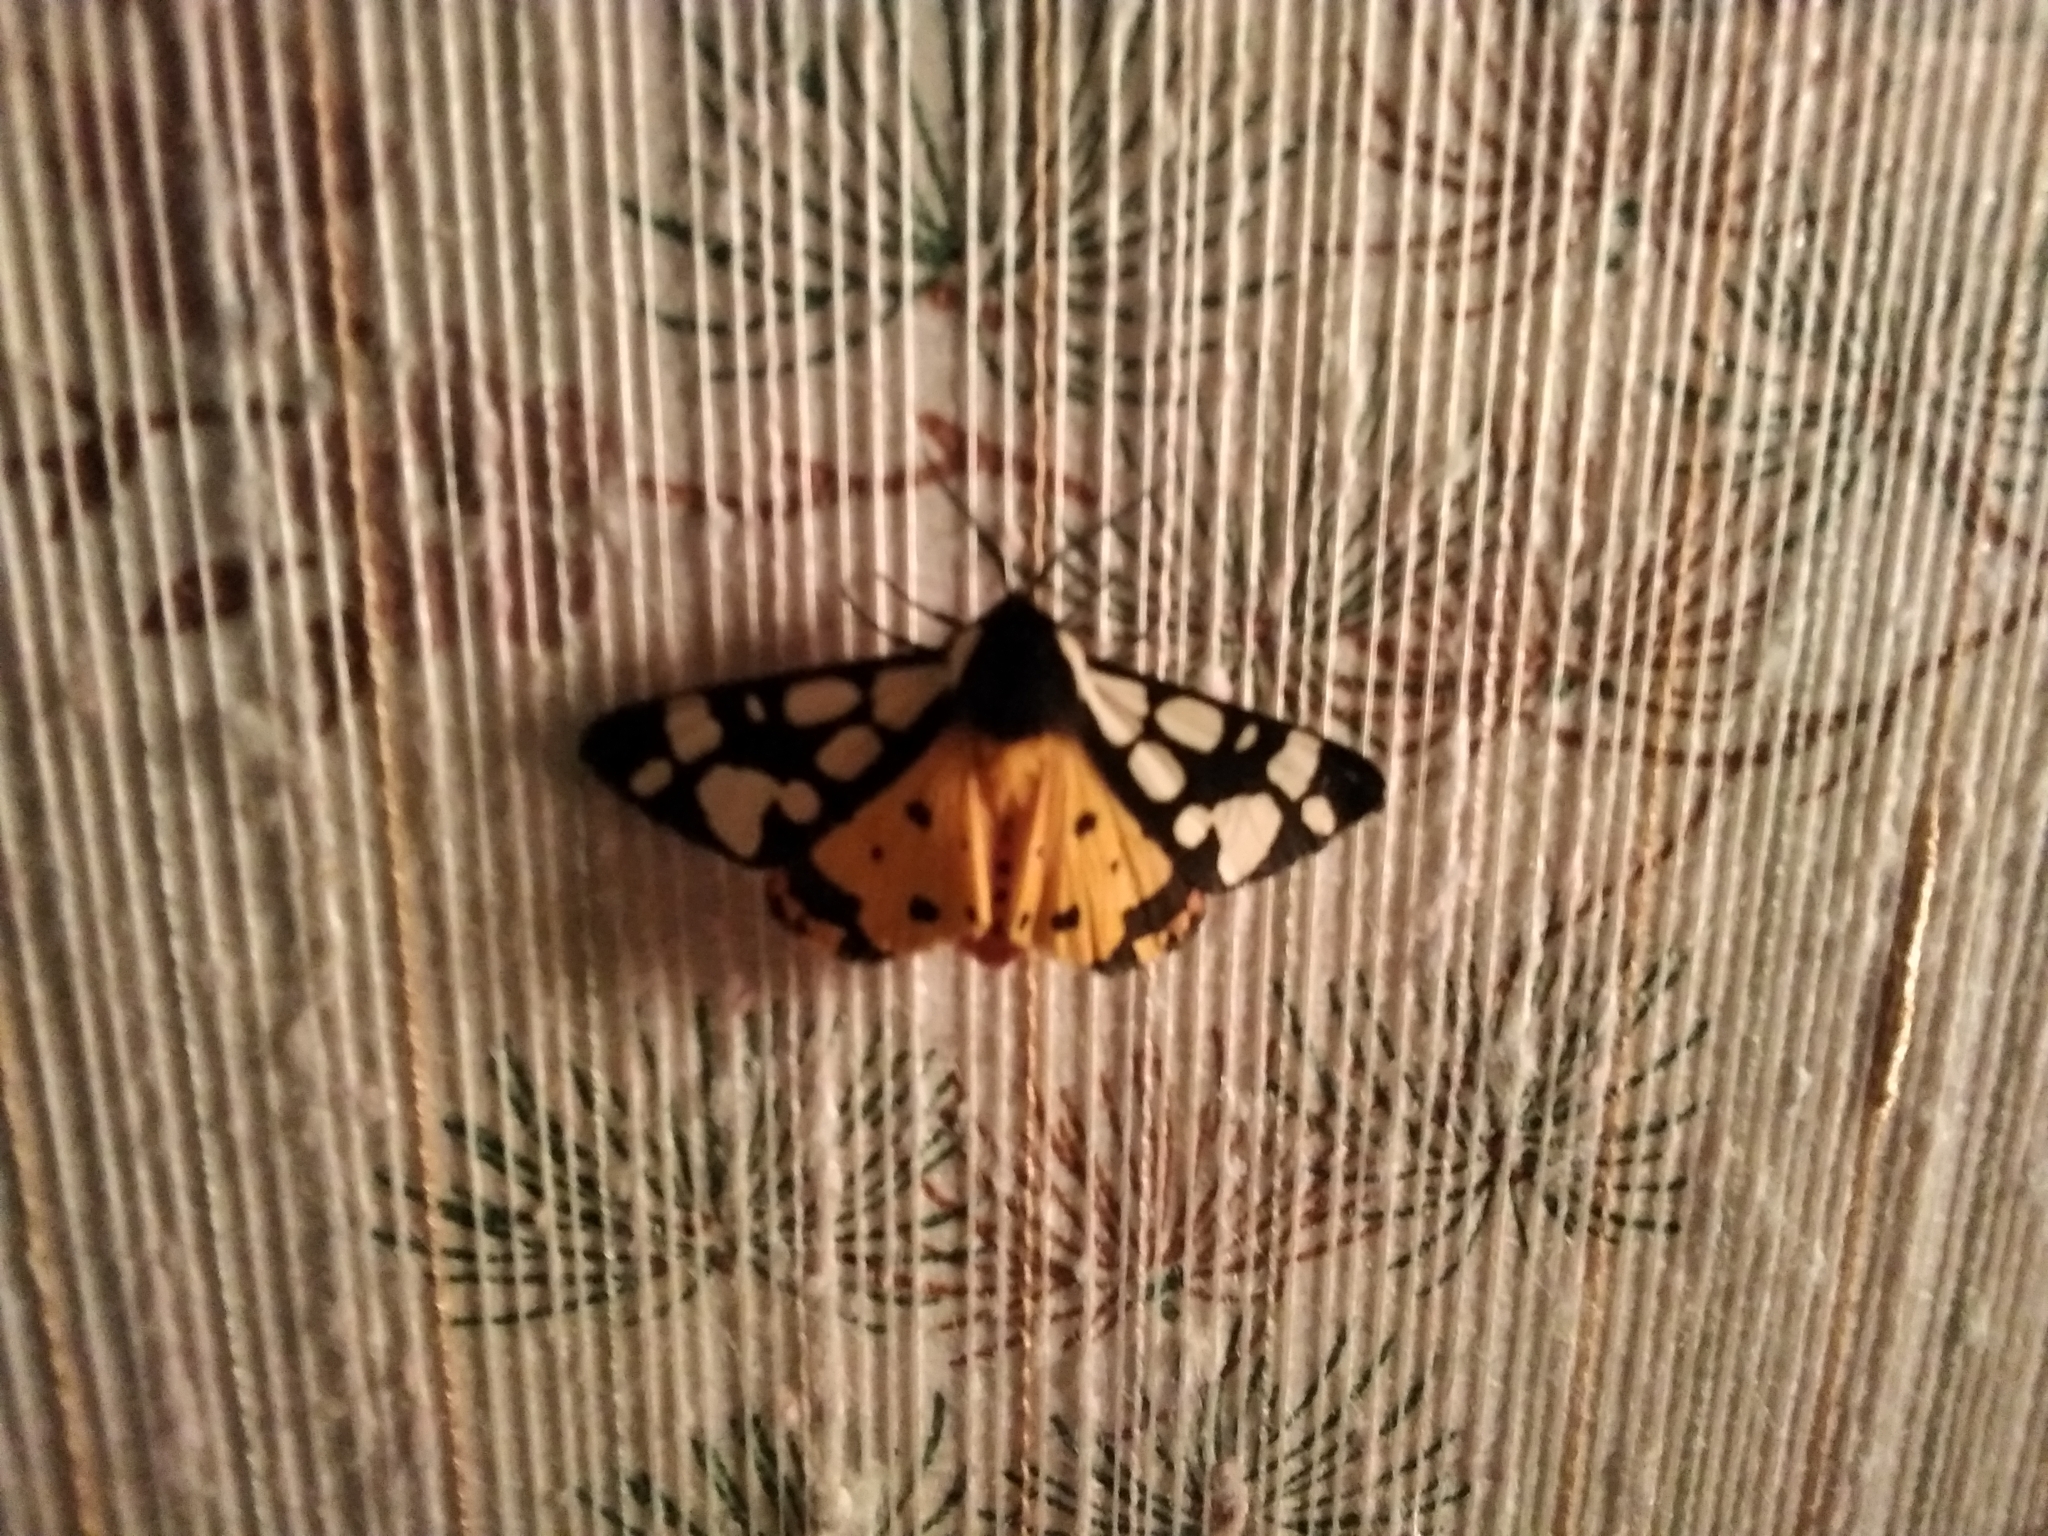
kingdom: Animalia
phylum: Arthropoda
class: Insecta
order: Lepidoptera
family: Erebidae
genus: Epicallia
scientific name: Epicallia villica
